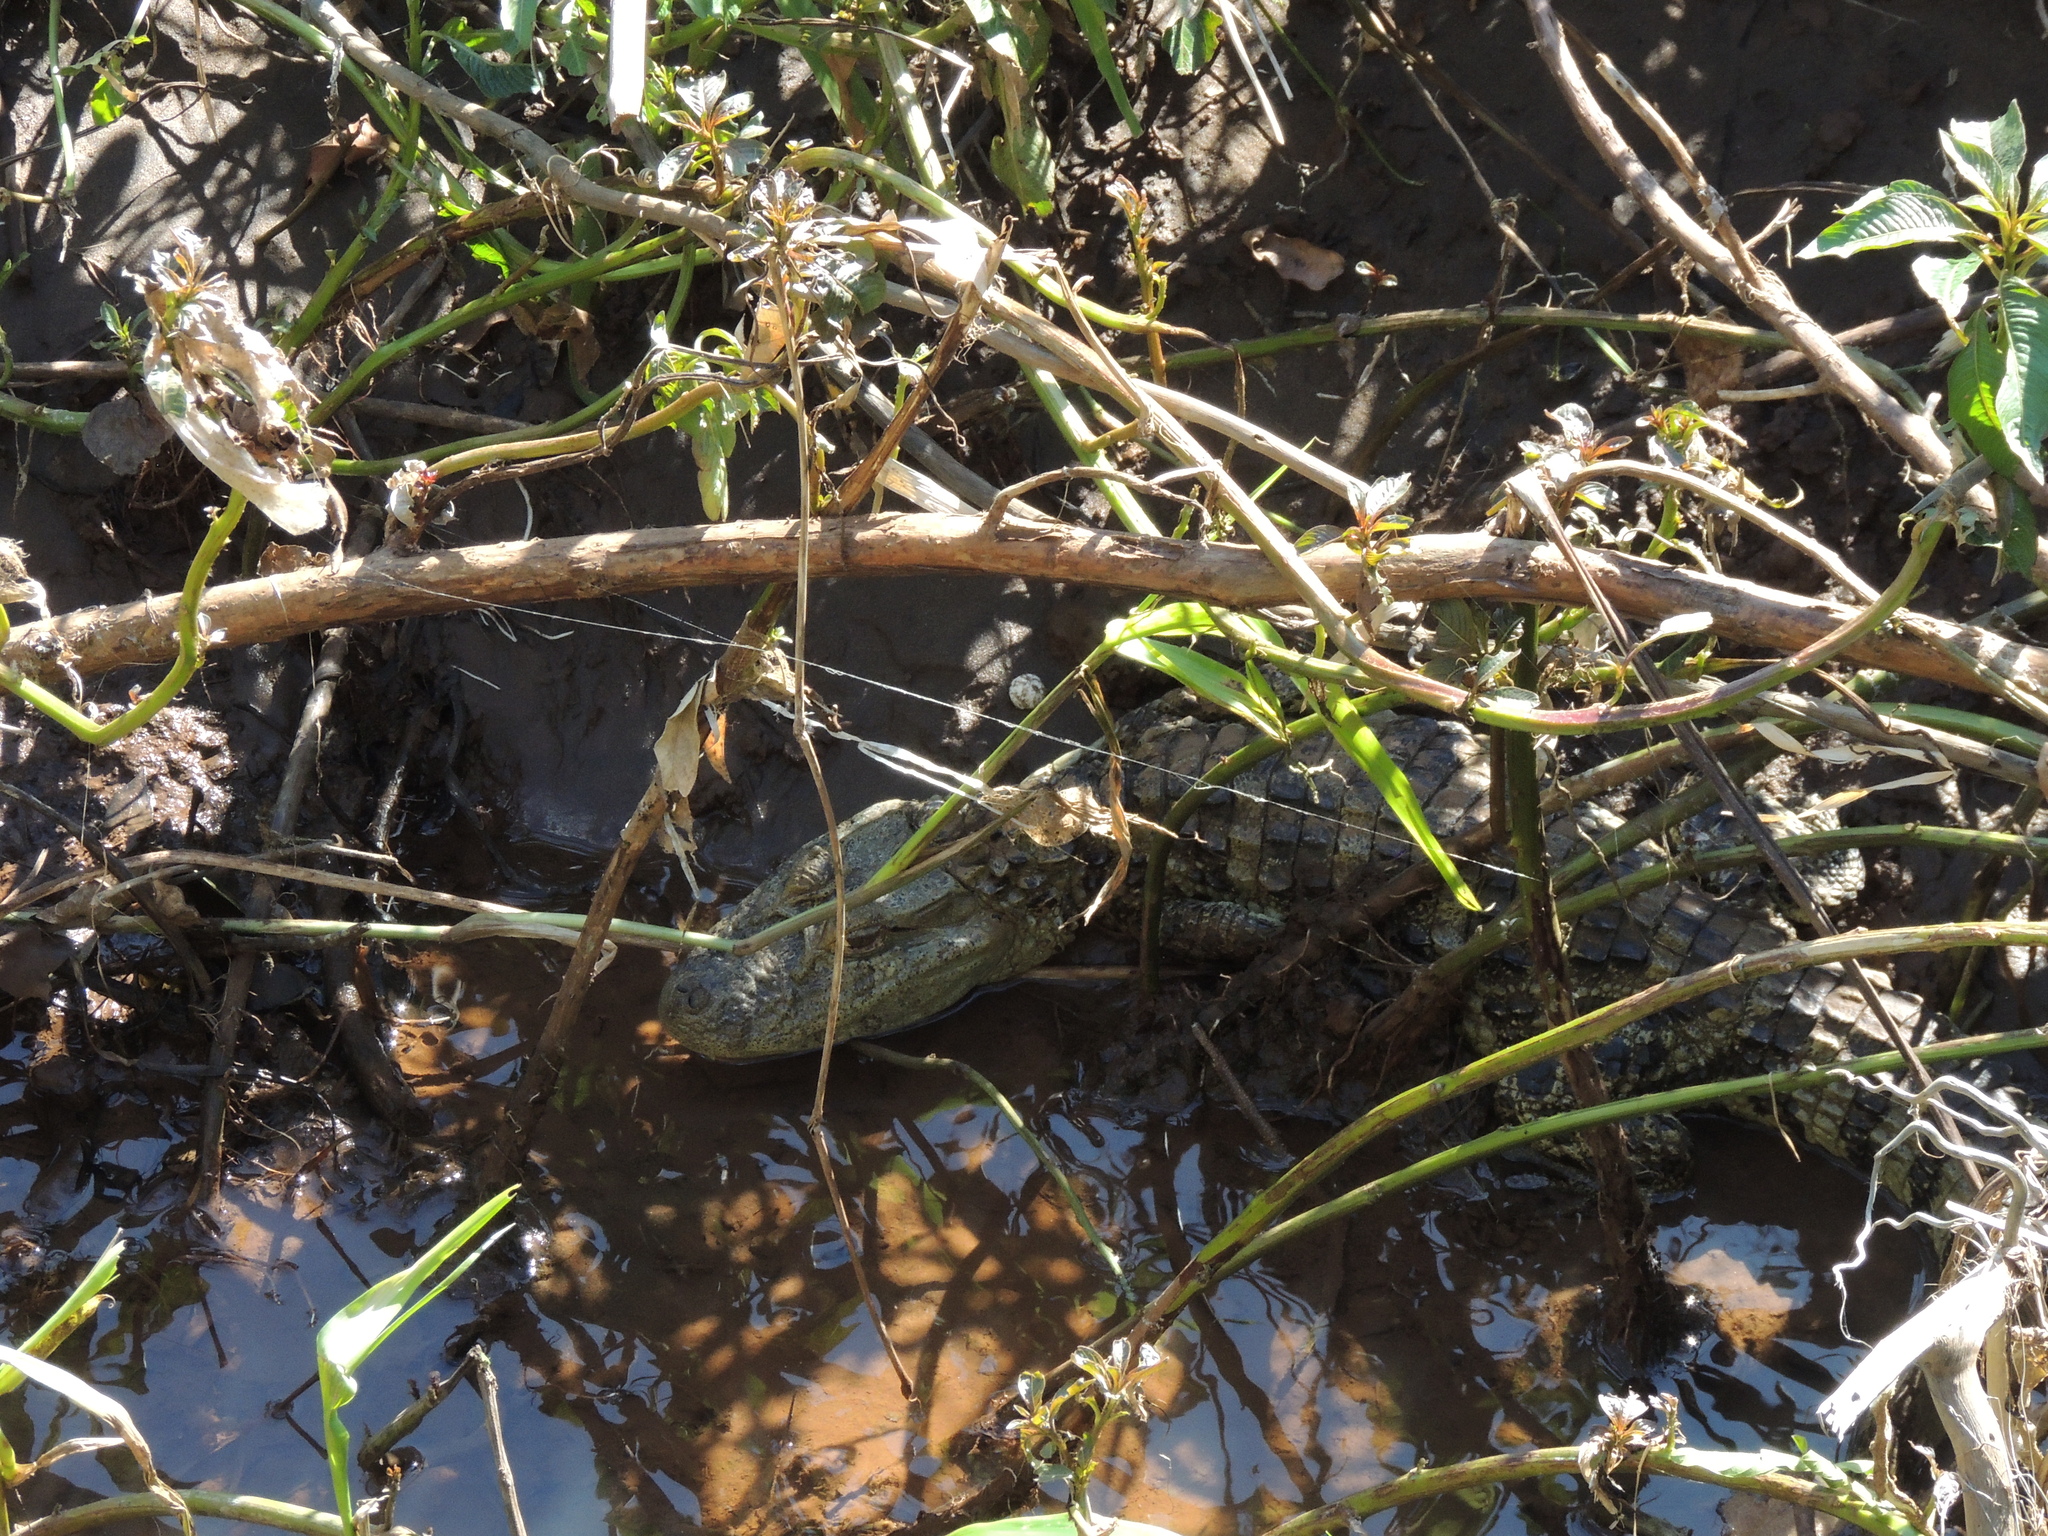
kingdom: Animalia
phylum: Chordata
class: Crocodylia
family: Alligatoridae
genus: Caiman
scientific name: Caiman latirostris
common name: Broad-snouted caiman
